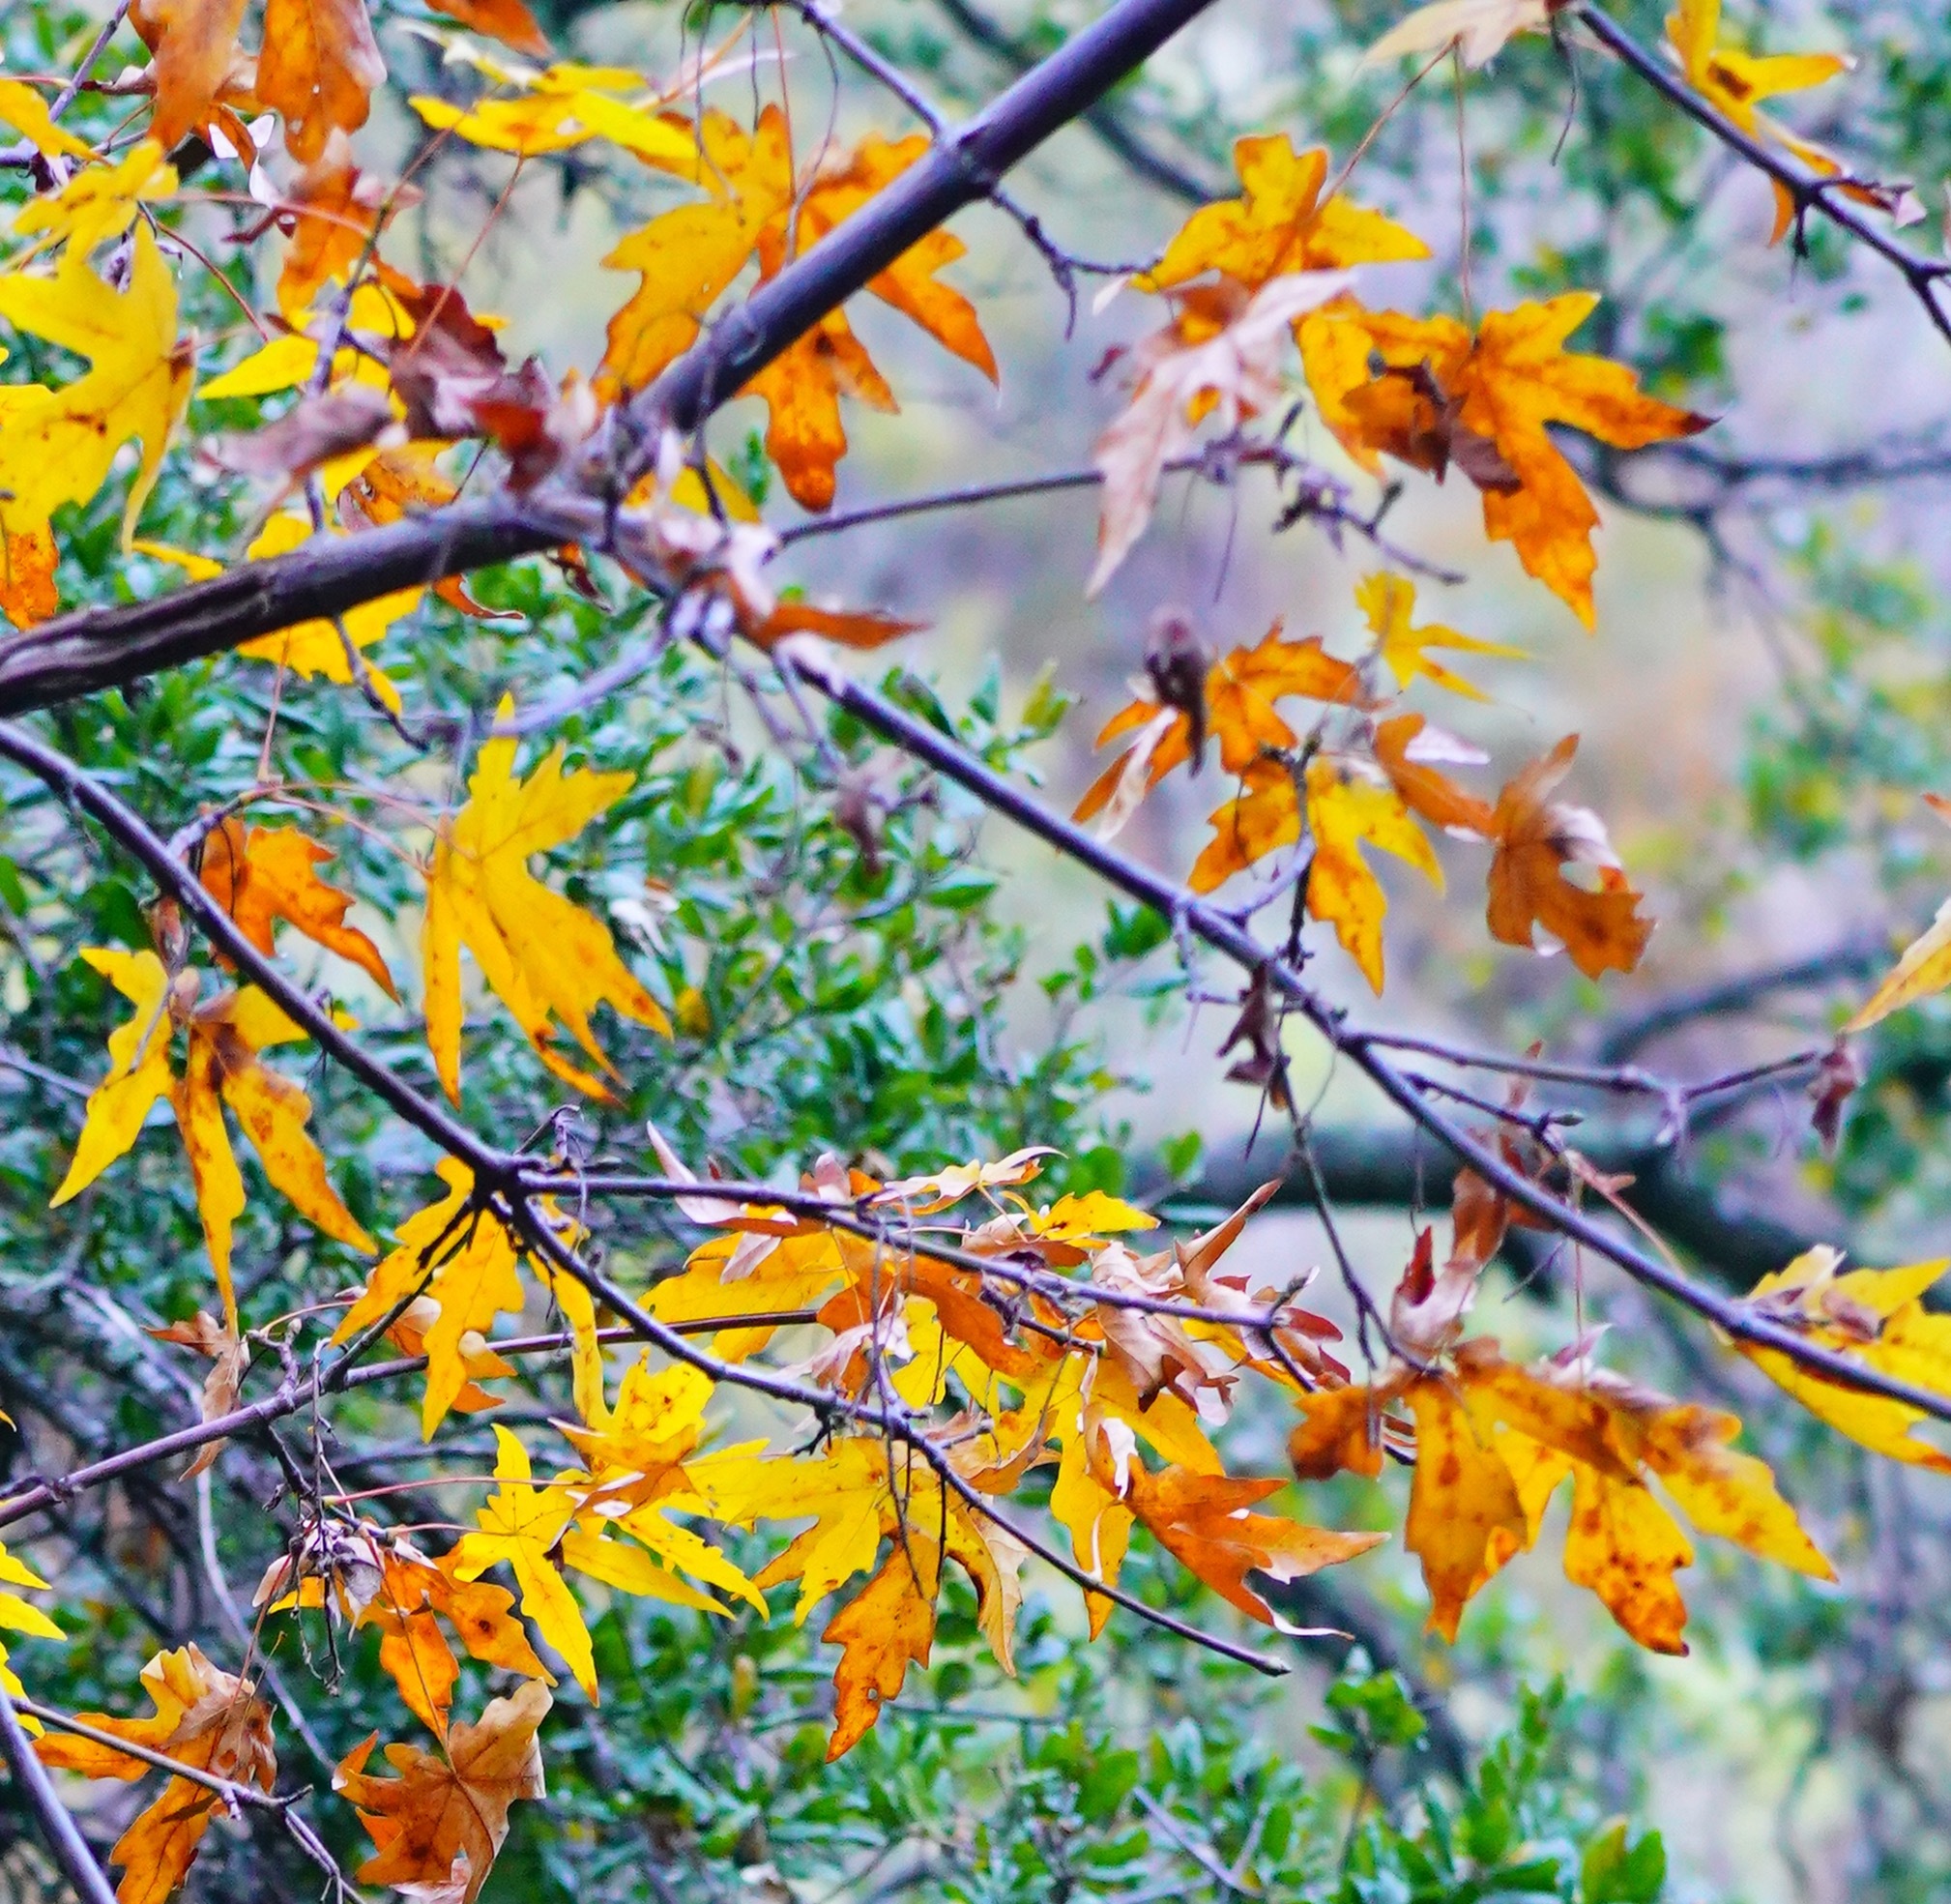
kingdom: Plantae
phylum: Tracheophyta
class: Magnoliopsida
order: Sapindales
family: Sapindaceae
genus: Acer
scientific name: Acer macrophyllum
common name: Oregon maple
